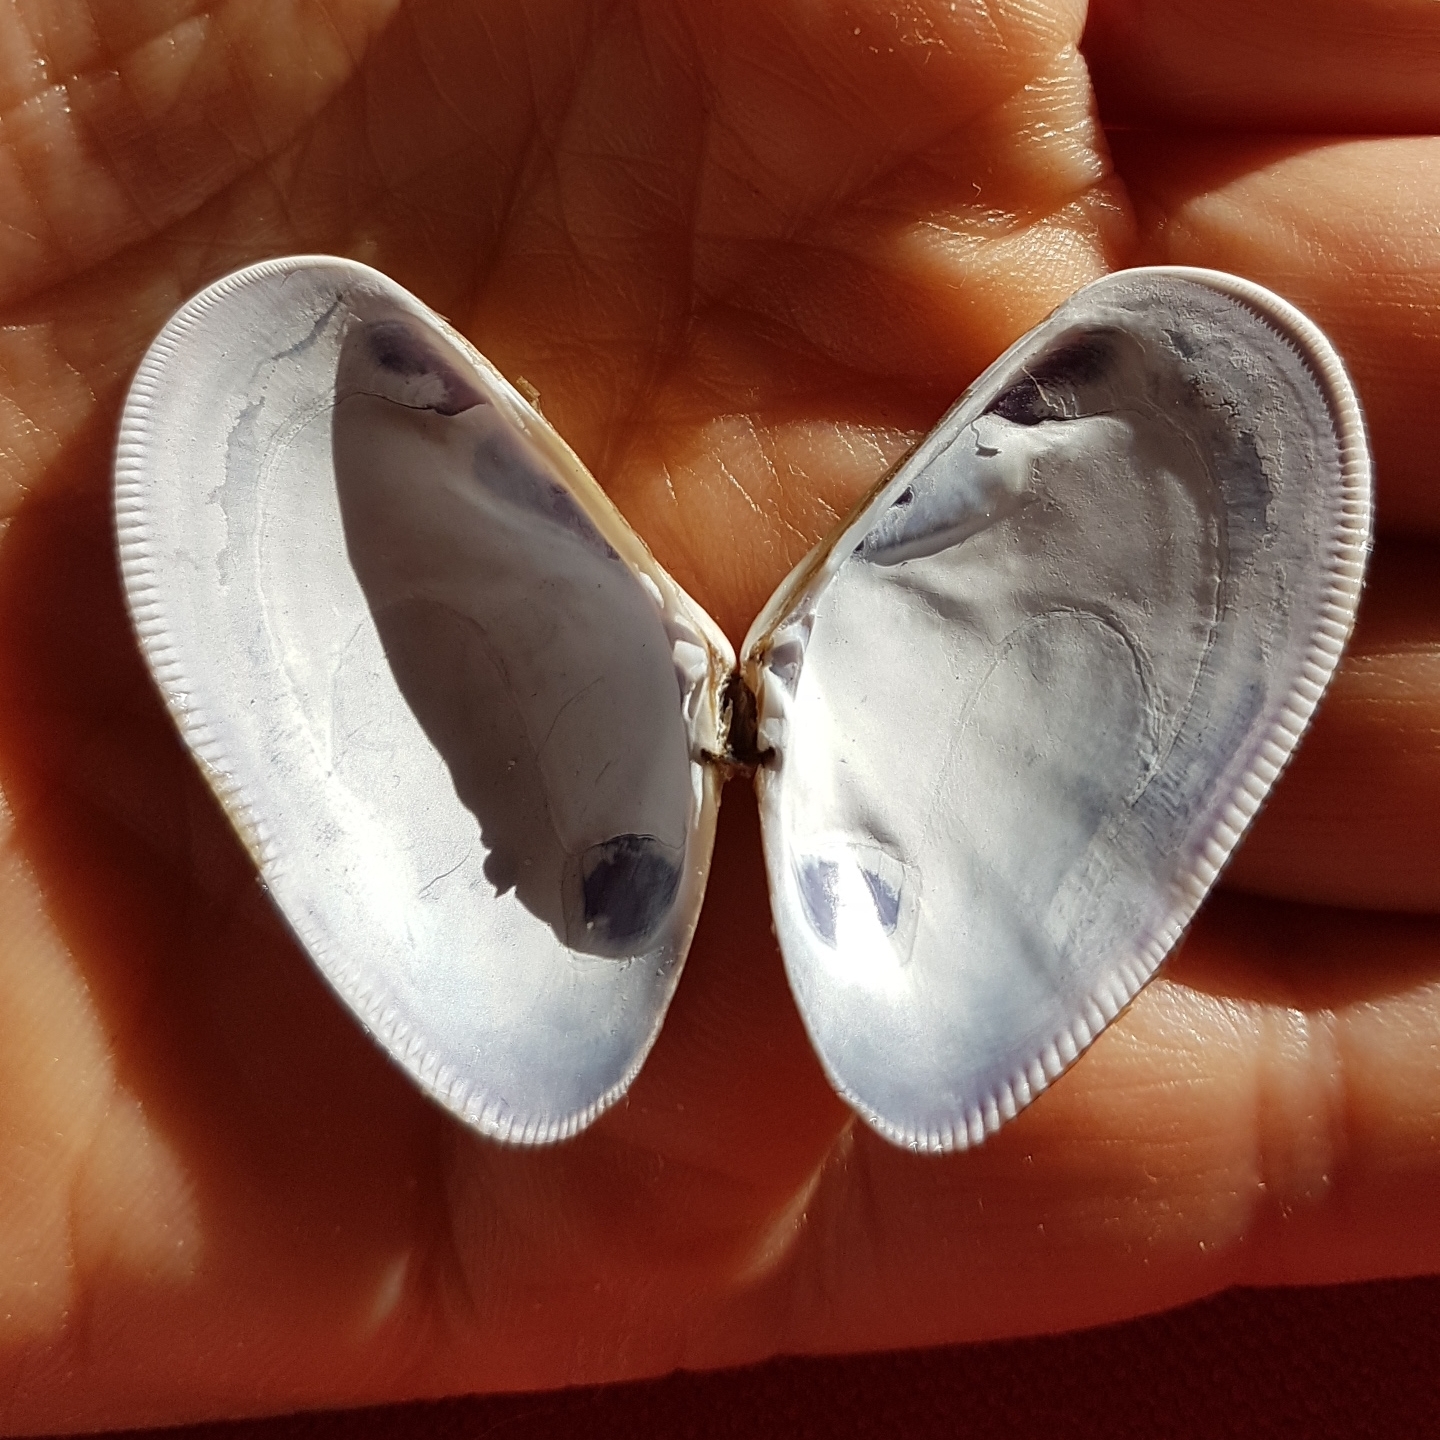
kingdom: Animalia
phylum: Mollusca
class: Bivalvia
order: Cardiida
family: Donacidae
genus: Donax
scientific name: Donax trunculus
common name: Truncate donax
